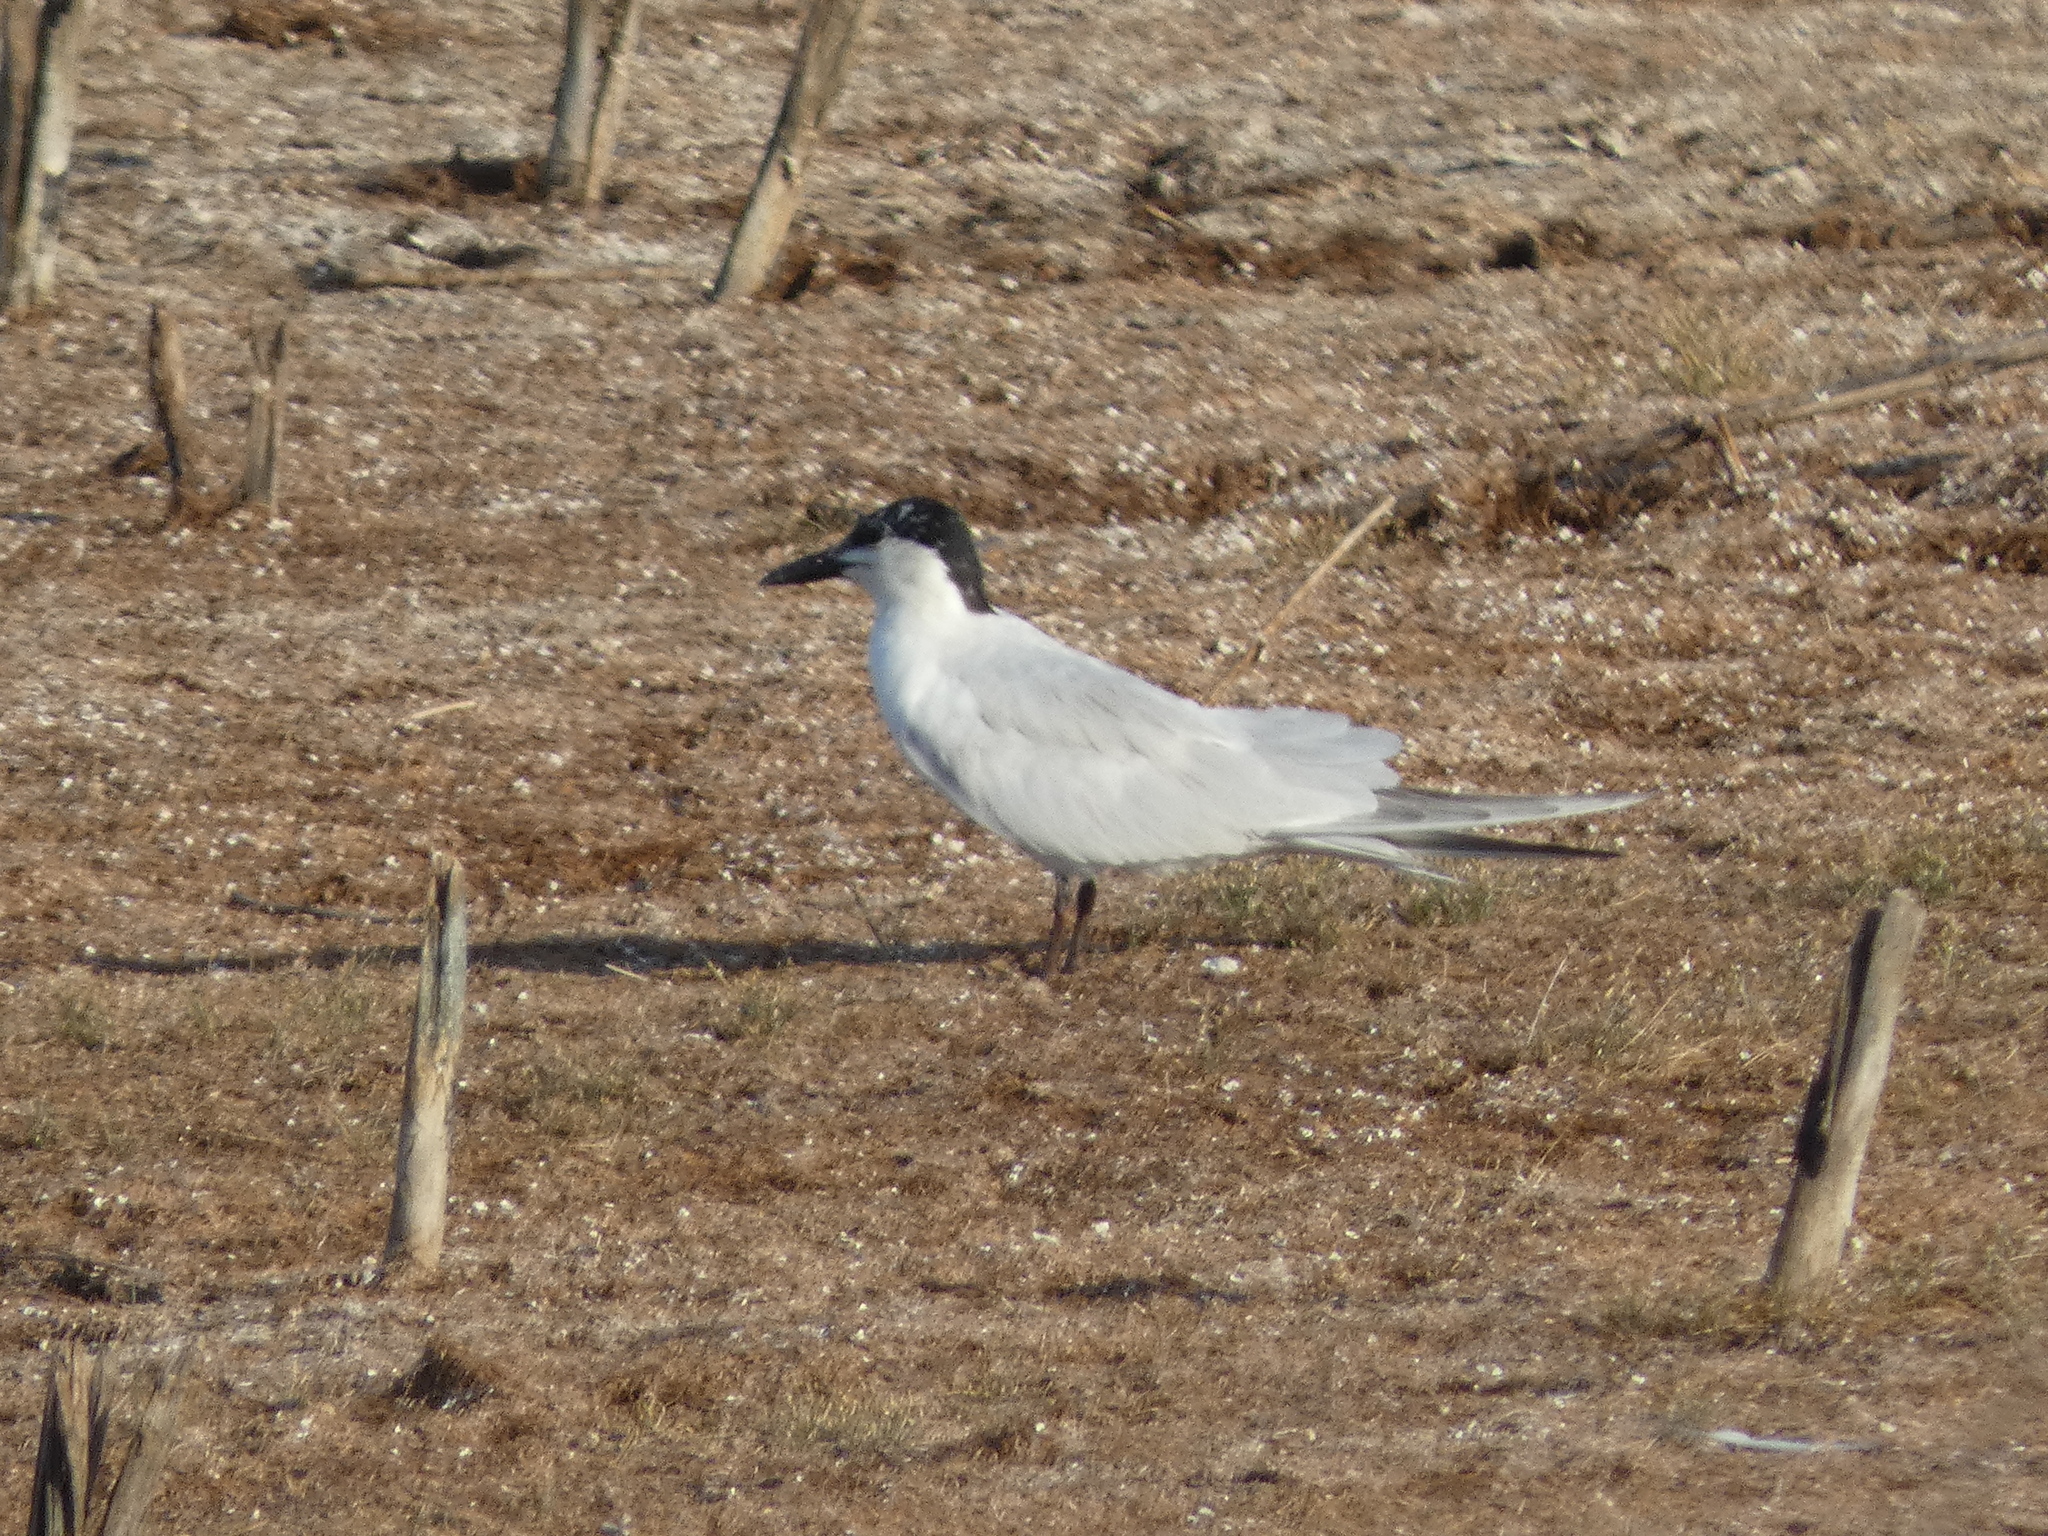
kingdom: Animalia
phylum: Chordata
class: Aves
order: Charadriiformes
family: Laridae
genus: Gelochelidon
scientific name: Gelochelidon nilotica
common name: Gull-billed tern
